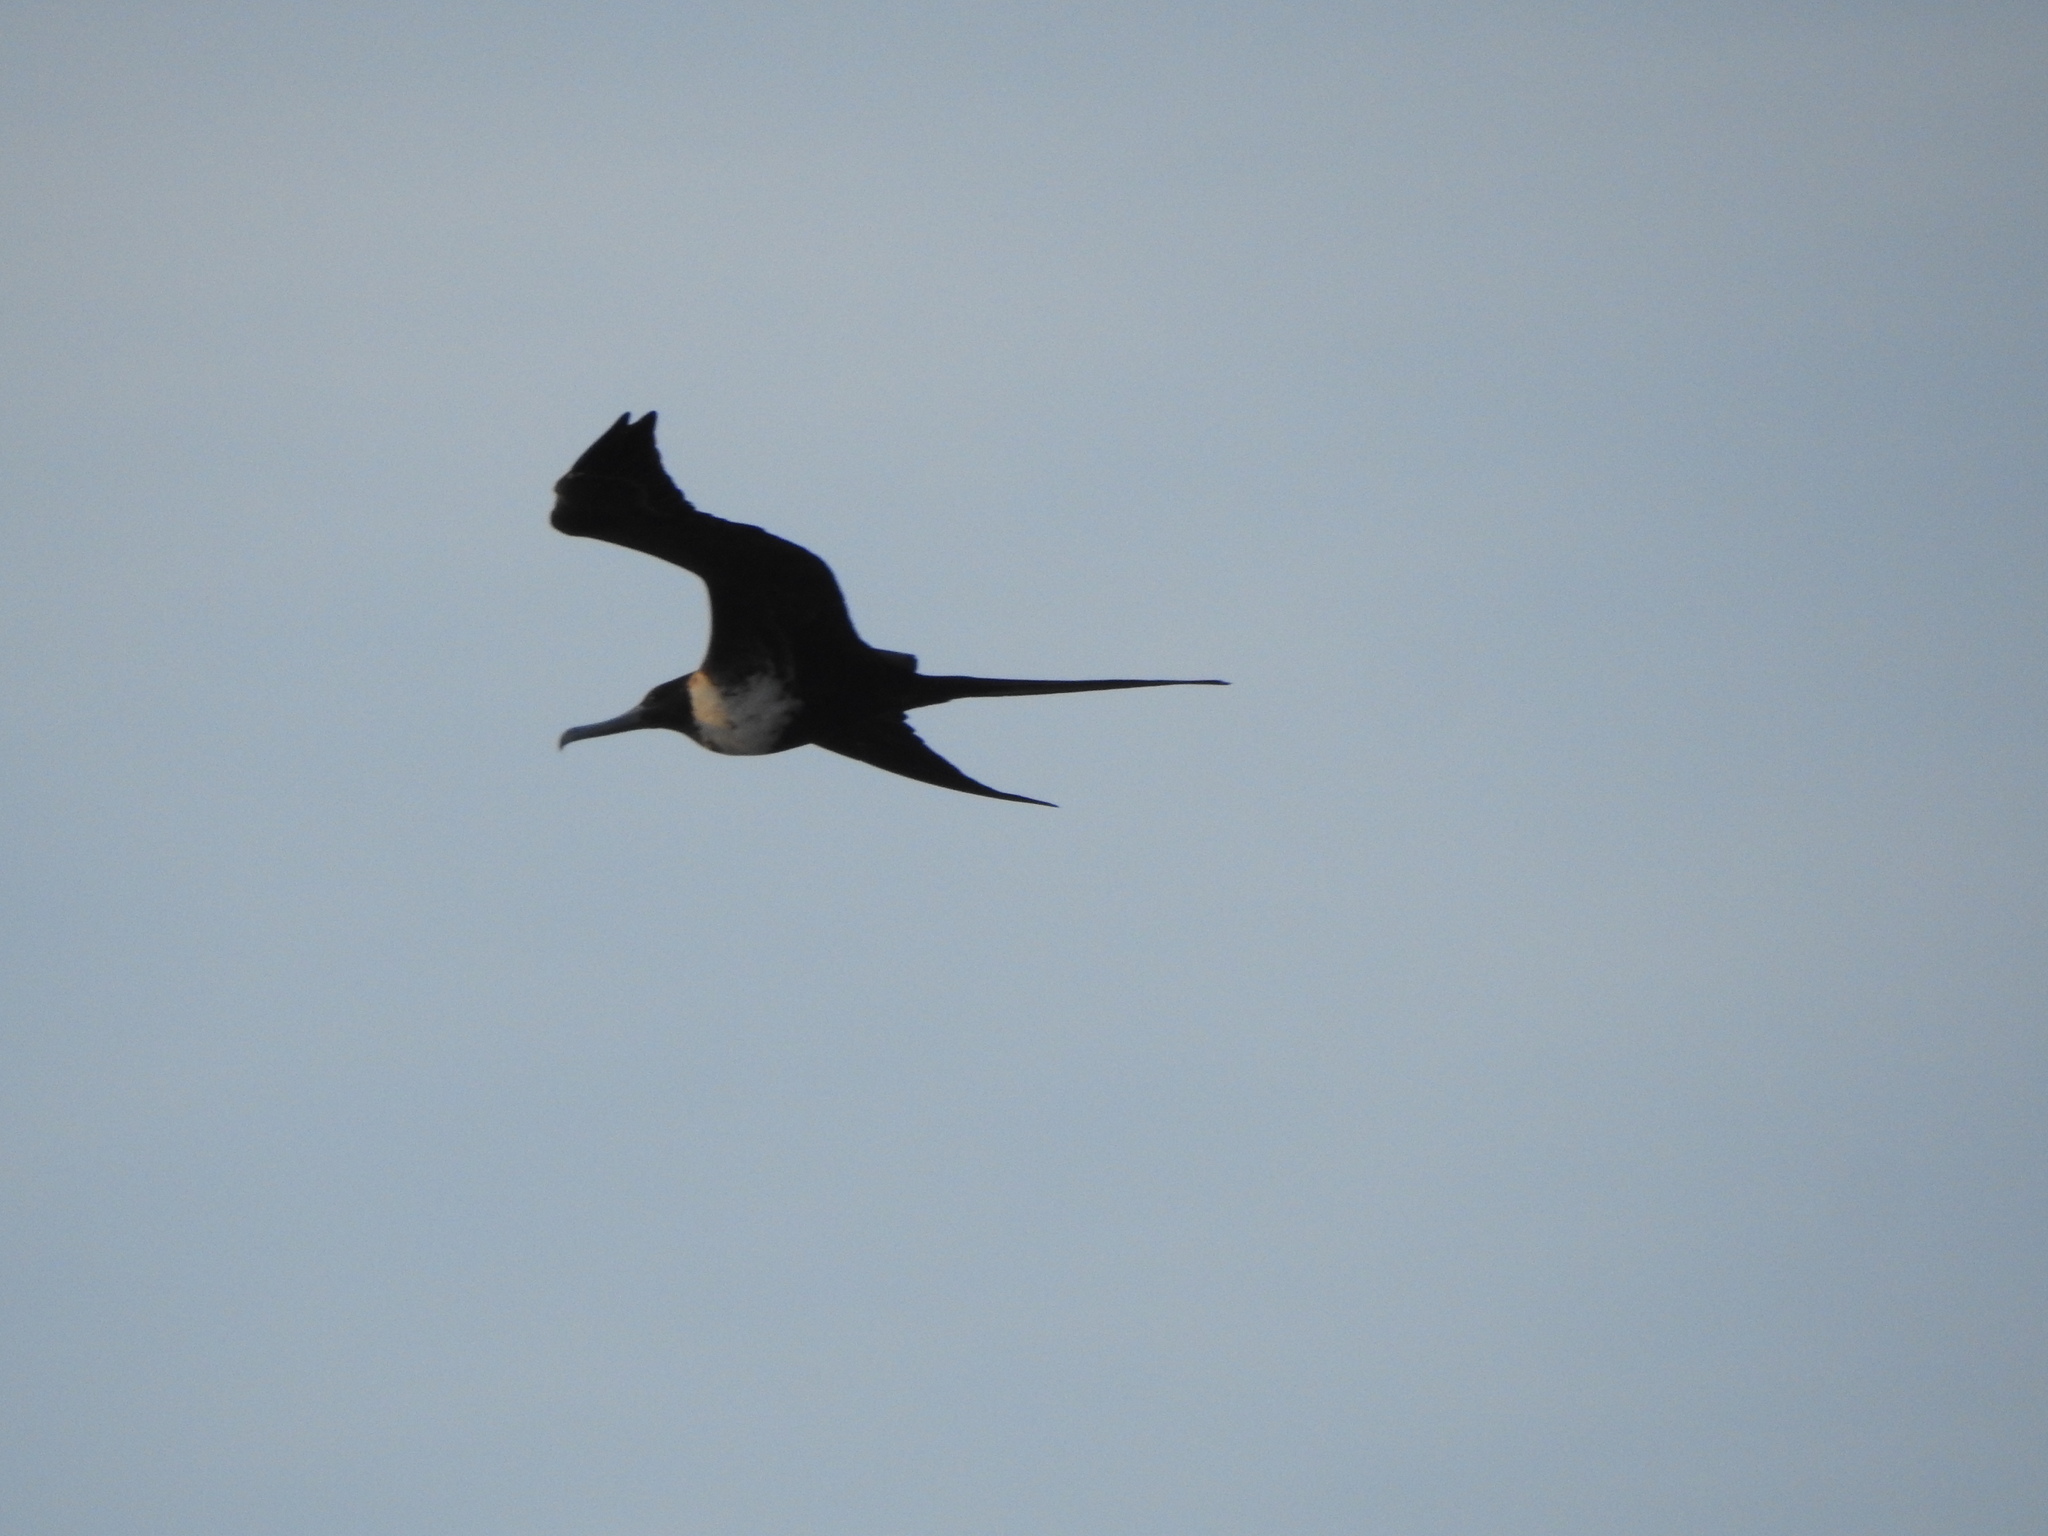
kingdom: Animalia
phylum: Chordata
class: Aves
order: Suliformes
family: Fregatidae
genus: Fregata
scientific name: Fregata magnificens
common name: Magnificent frigatebird
